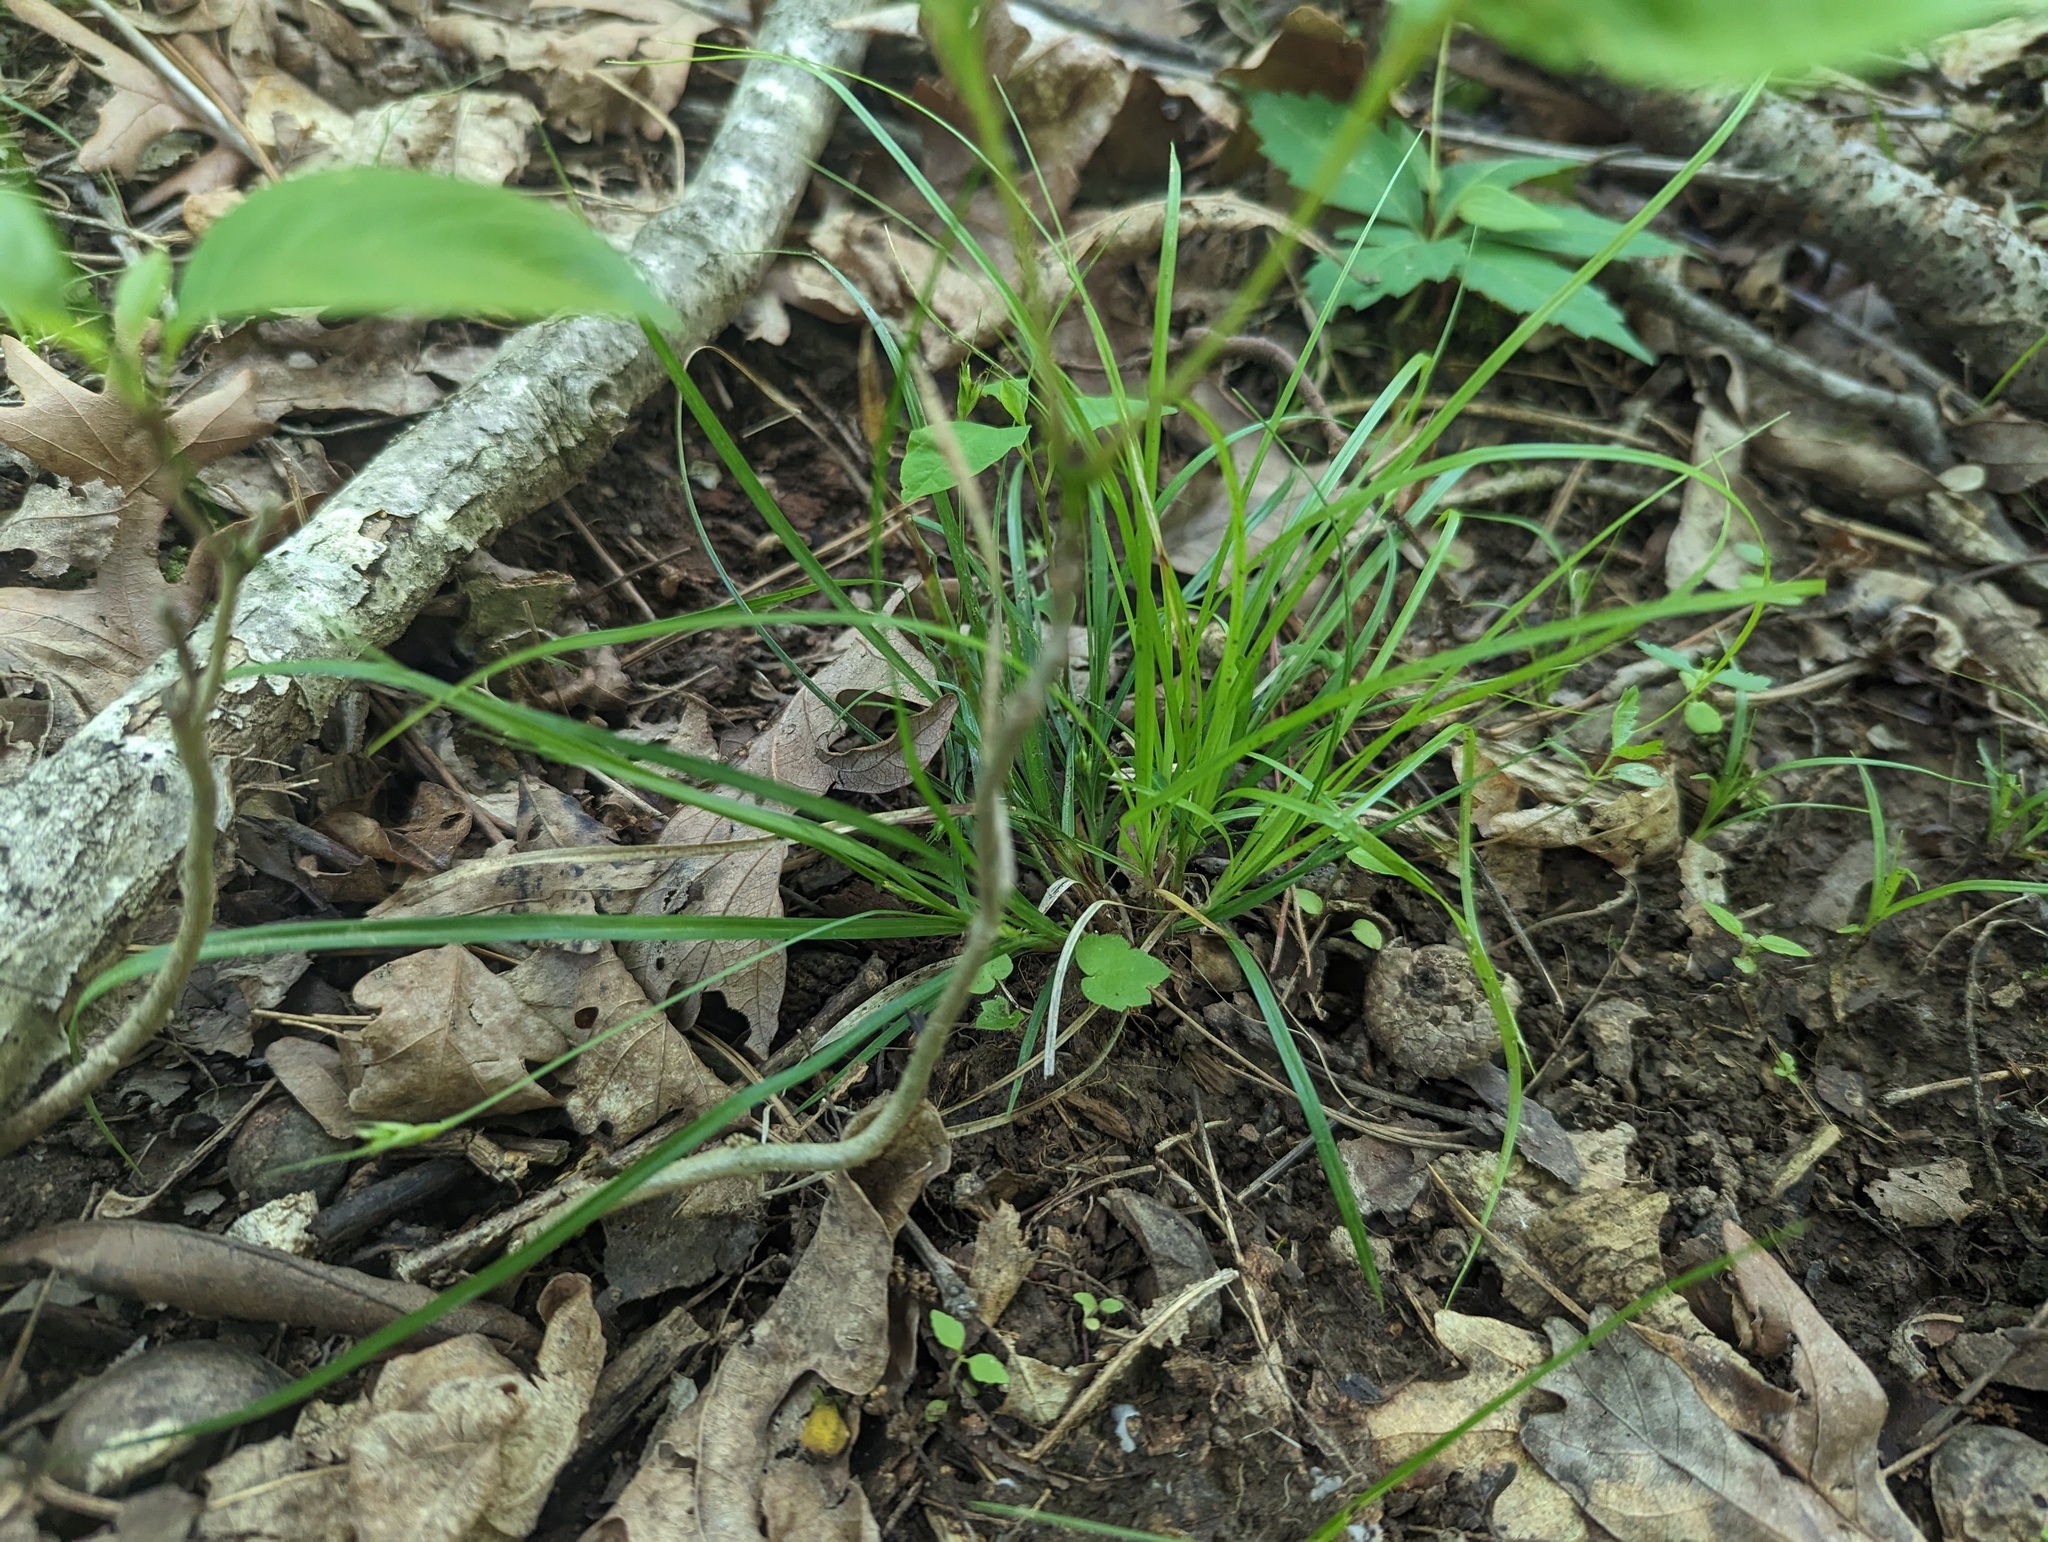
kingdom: Plantae
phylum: Tracheophyta
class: Liliopsida
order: Poales
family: Cyperaceae
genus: Carex
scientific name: Carex willdenowii
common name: Willdenow's sedge
